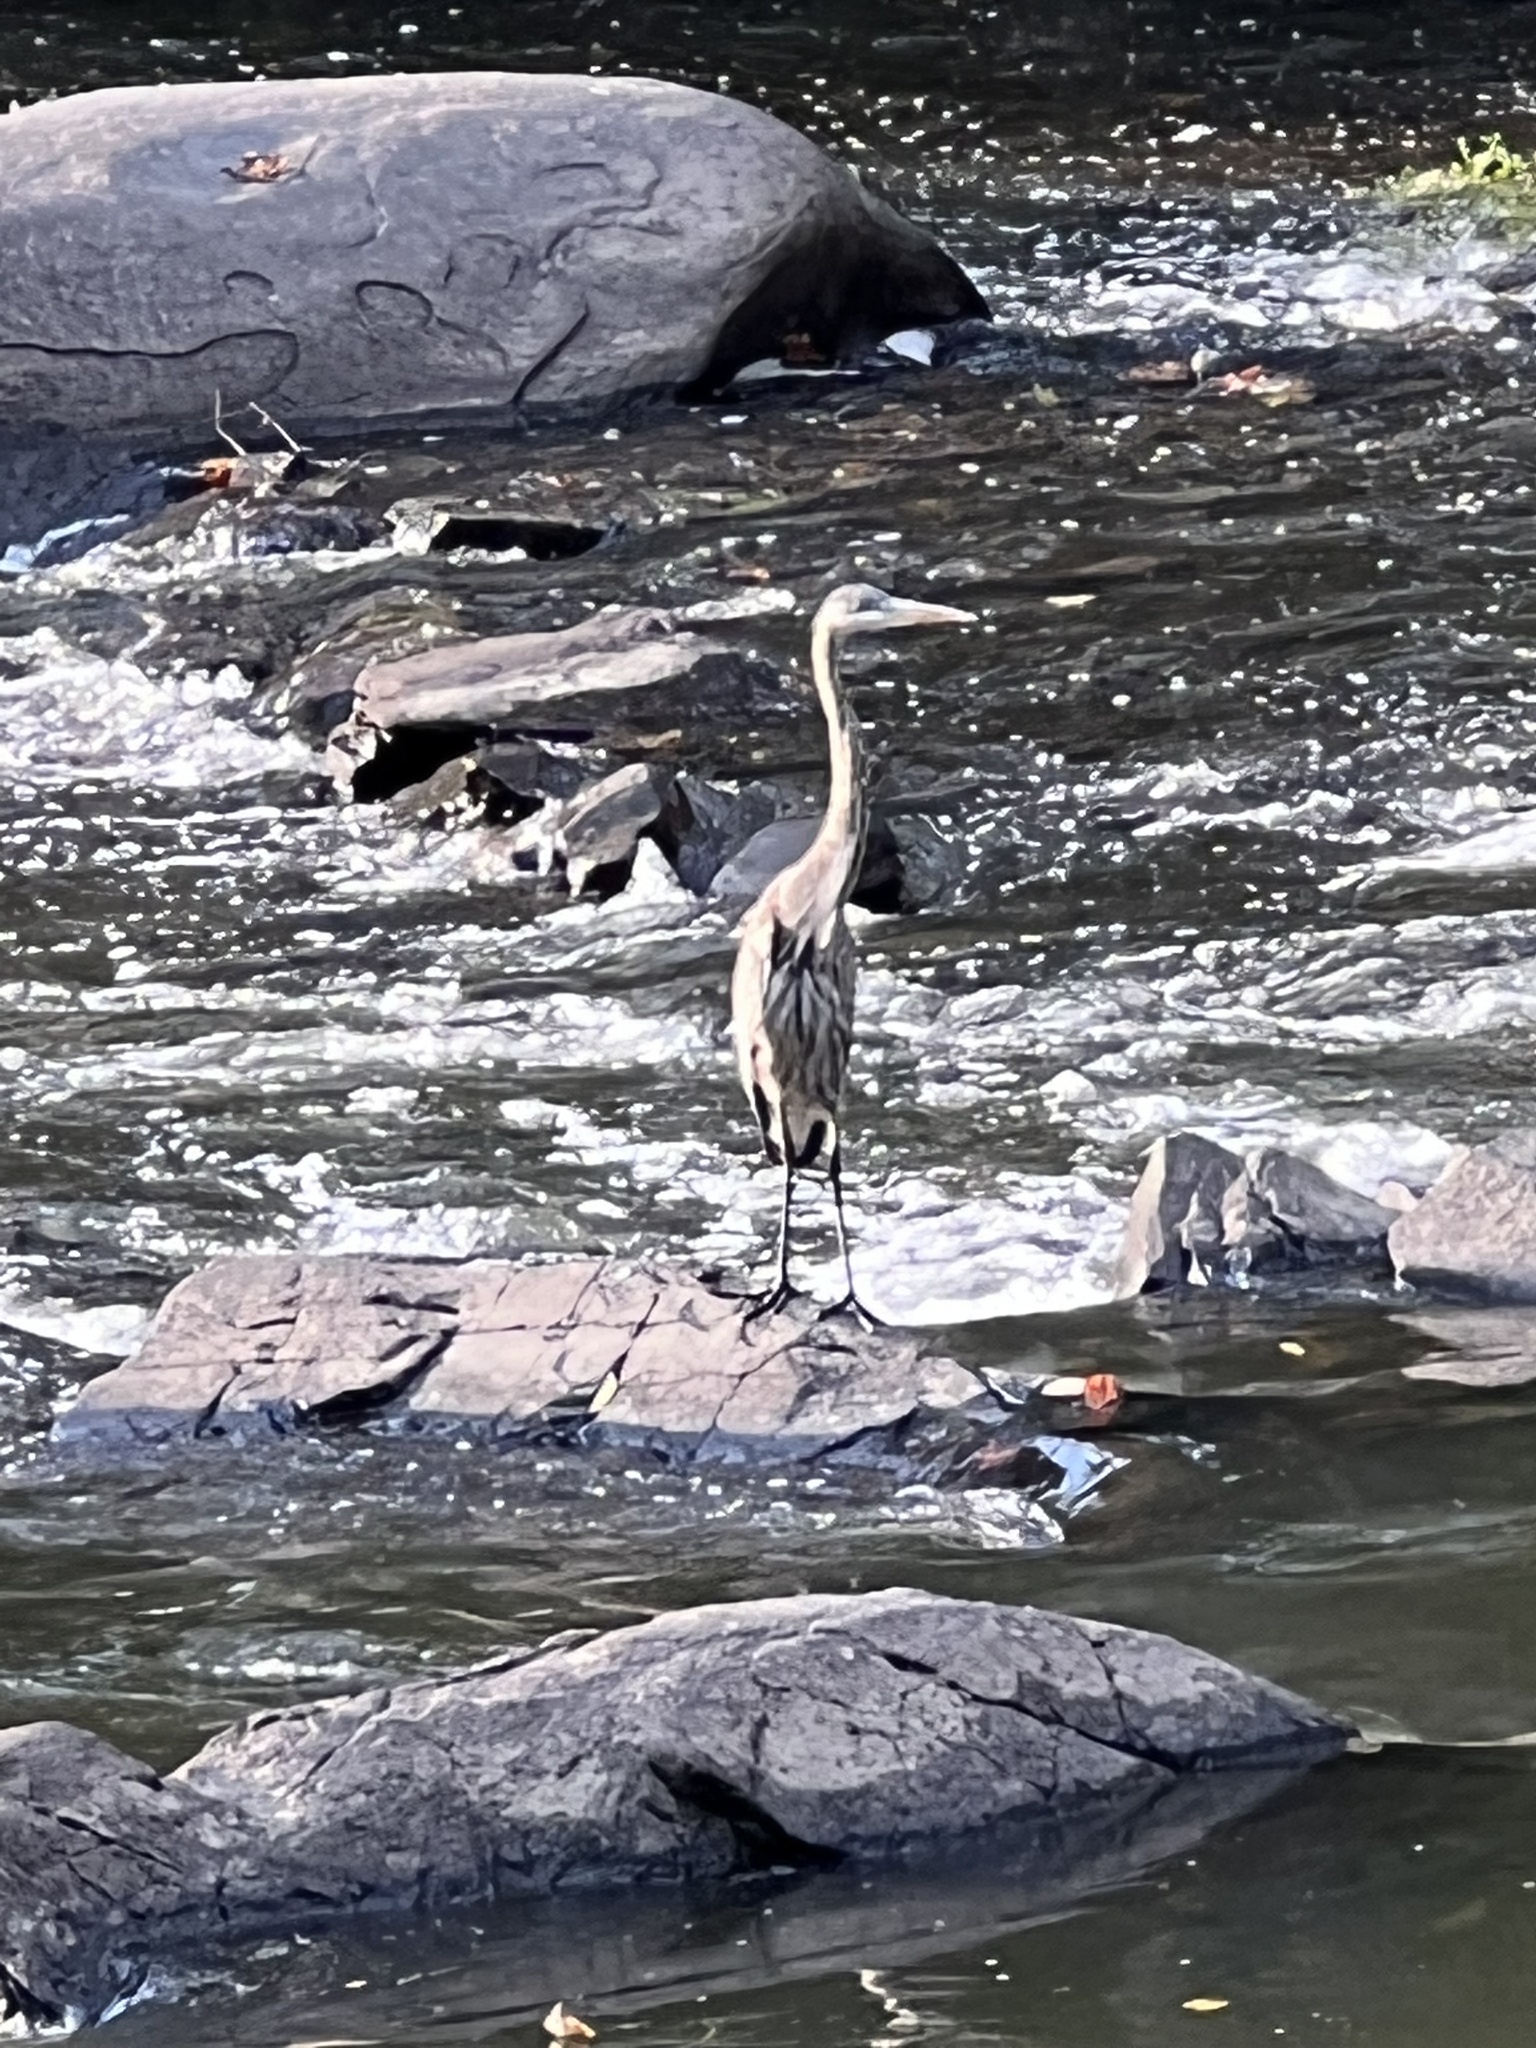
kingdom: Animalia
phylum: Chordata
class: Aves
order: Pelecaniformes
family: Ardeidae
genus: Ardea
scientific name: Ardea herodias
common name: Great blue heron
